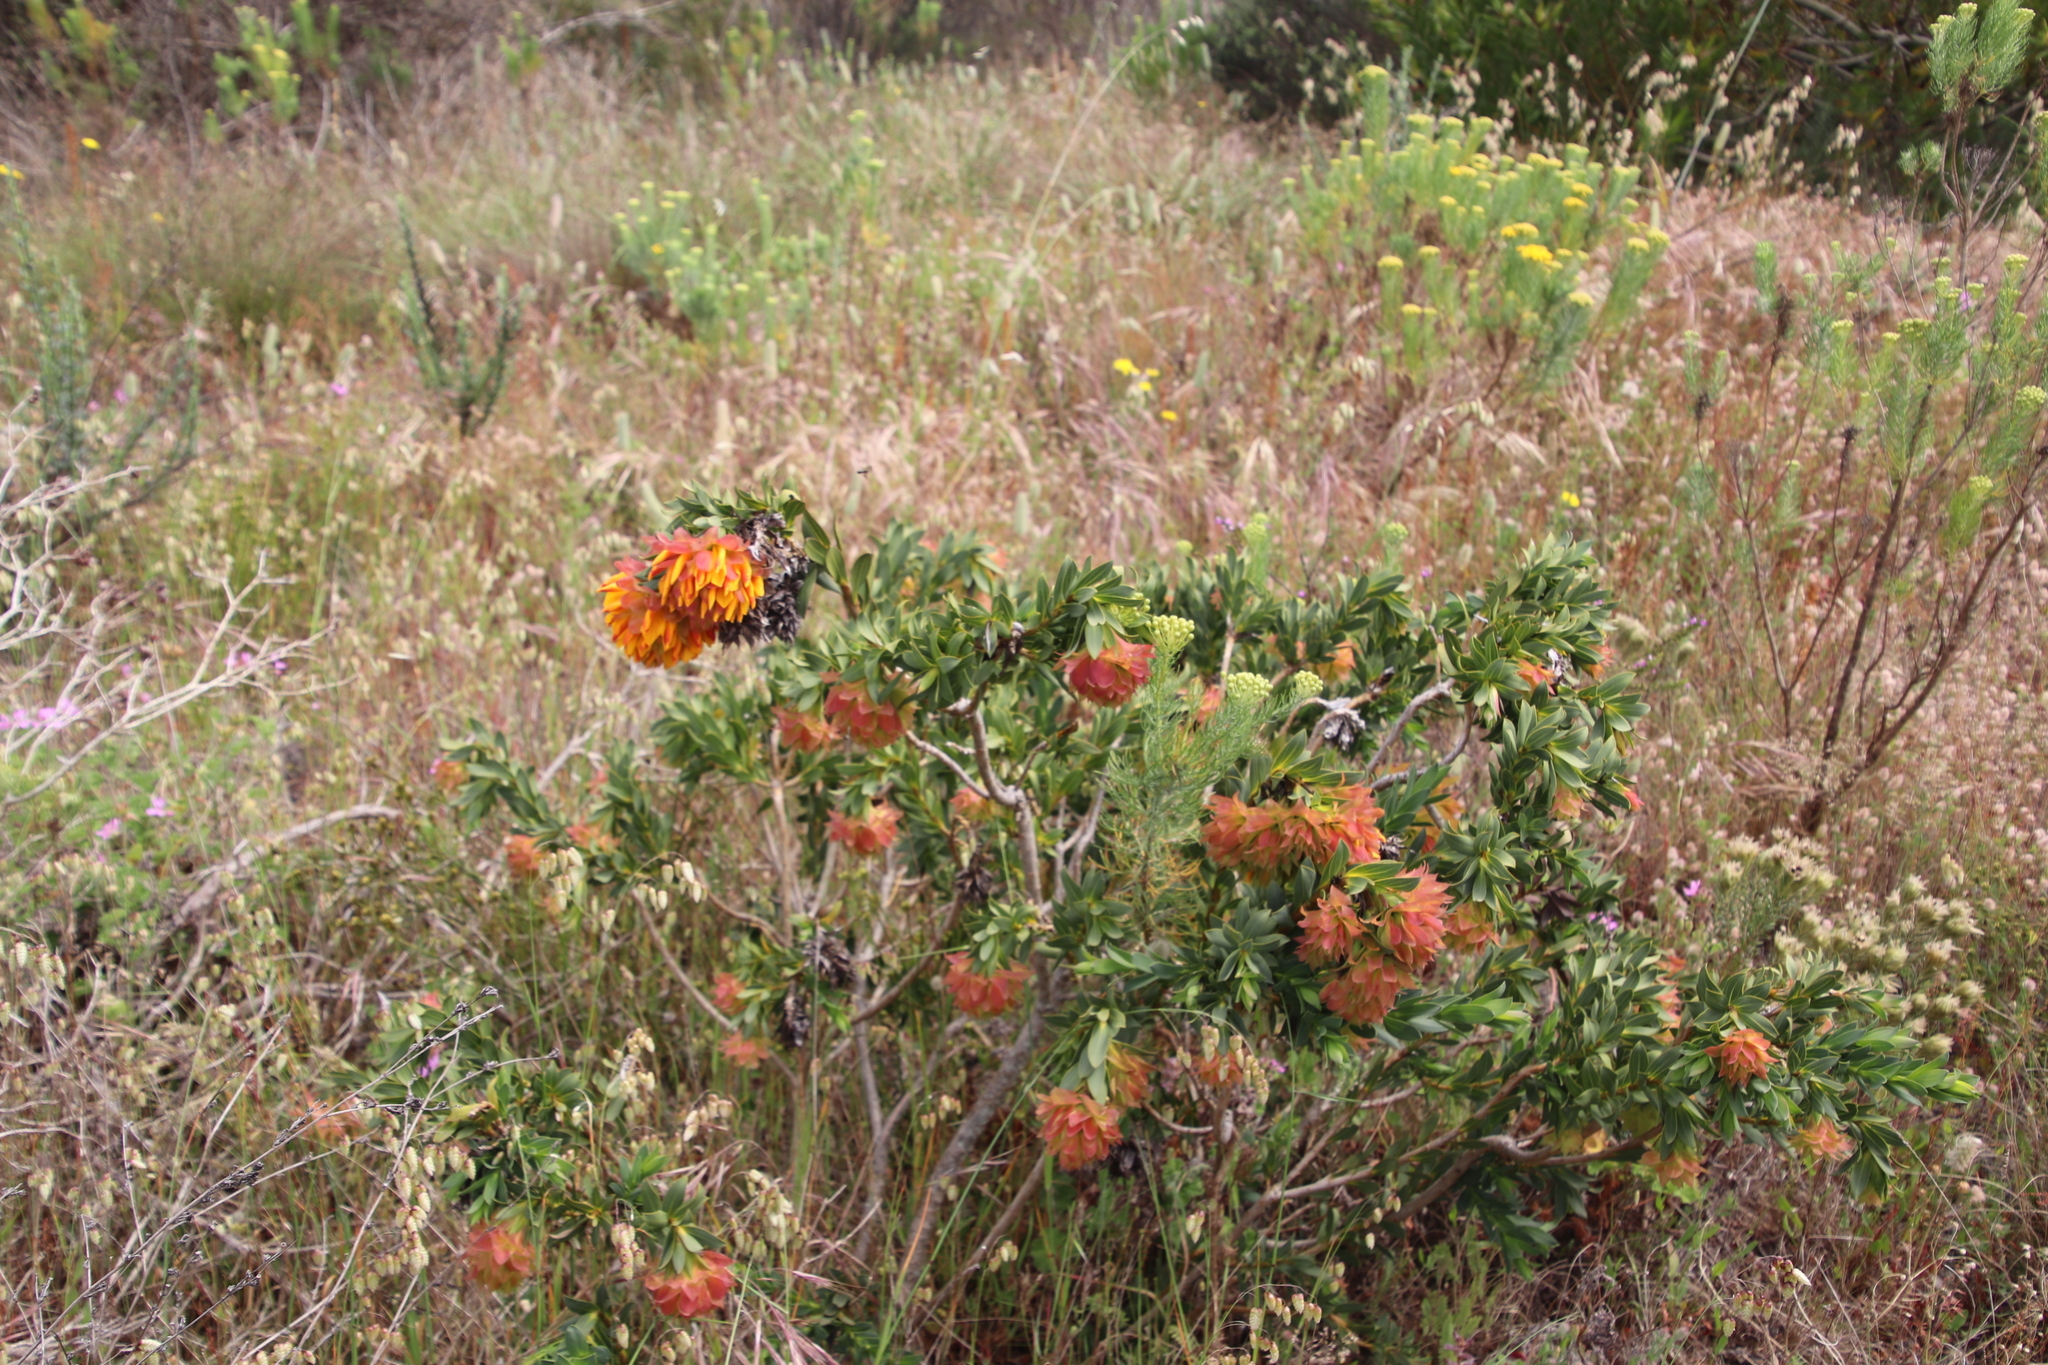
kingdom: Plantae
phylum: Tracheophyta
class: Magnoliopsida
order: Fabales
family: Fabaceae
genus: Liparia
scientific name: Liparia splendens
